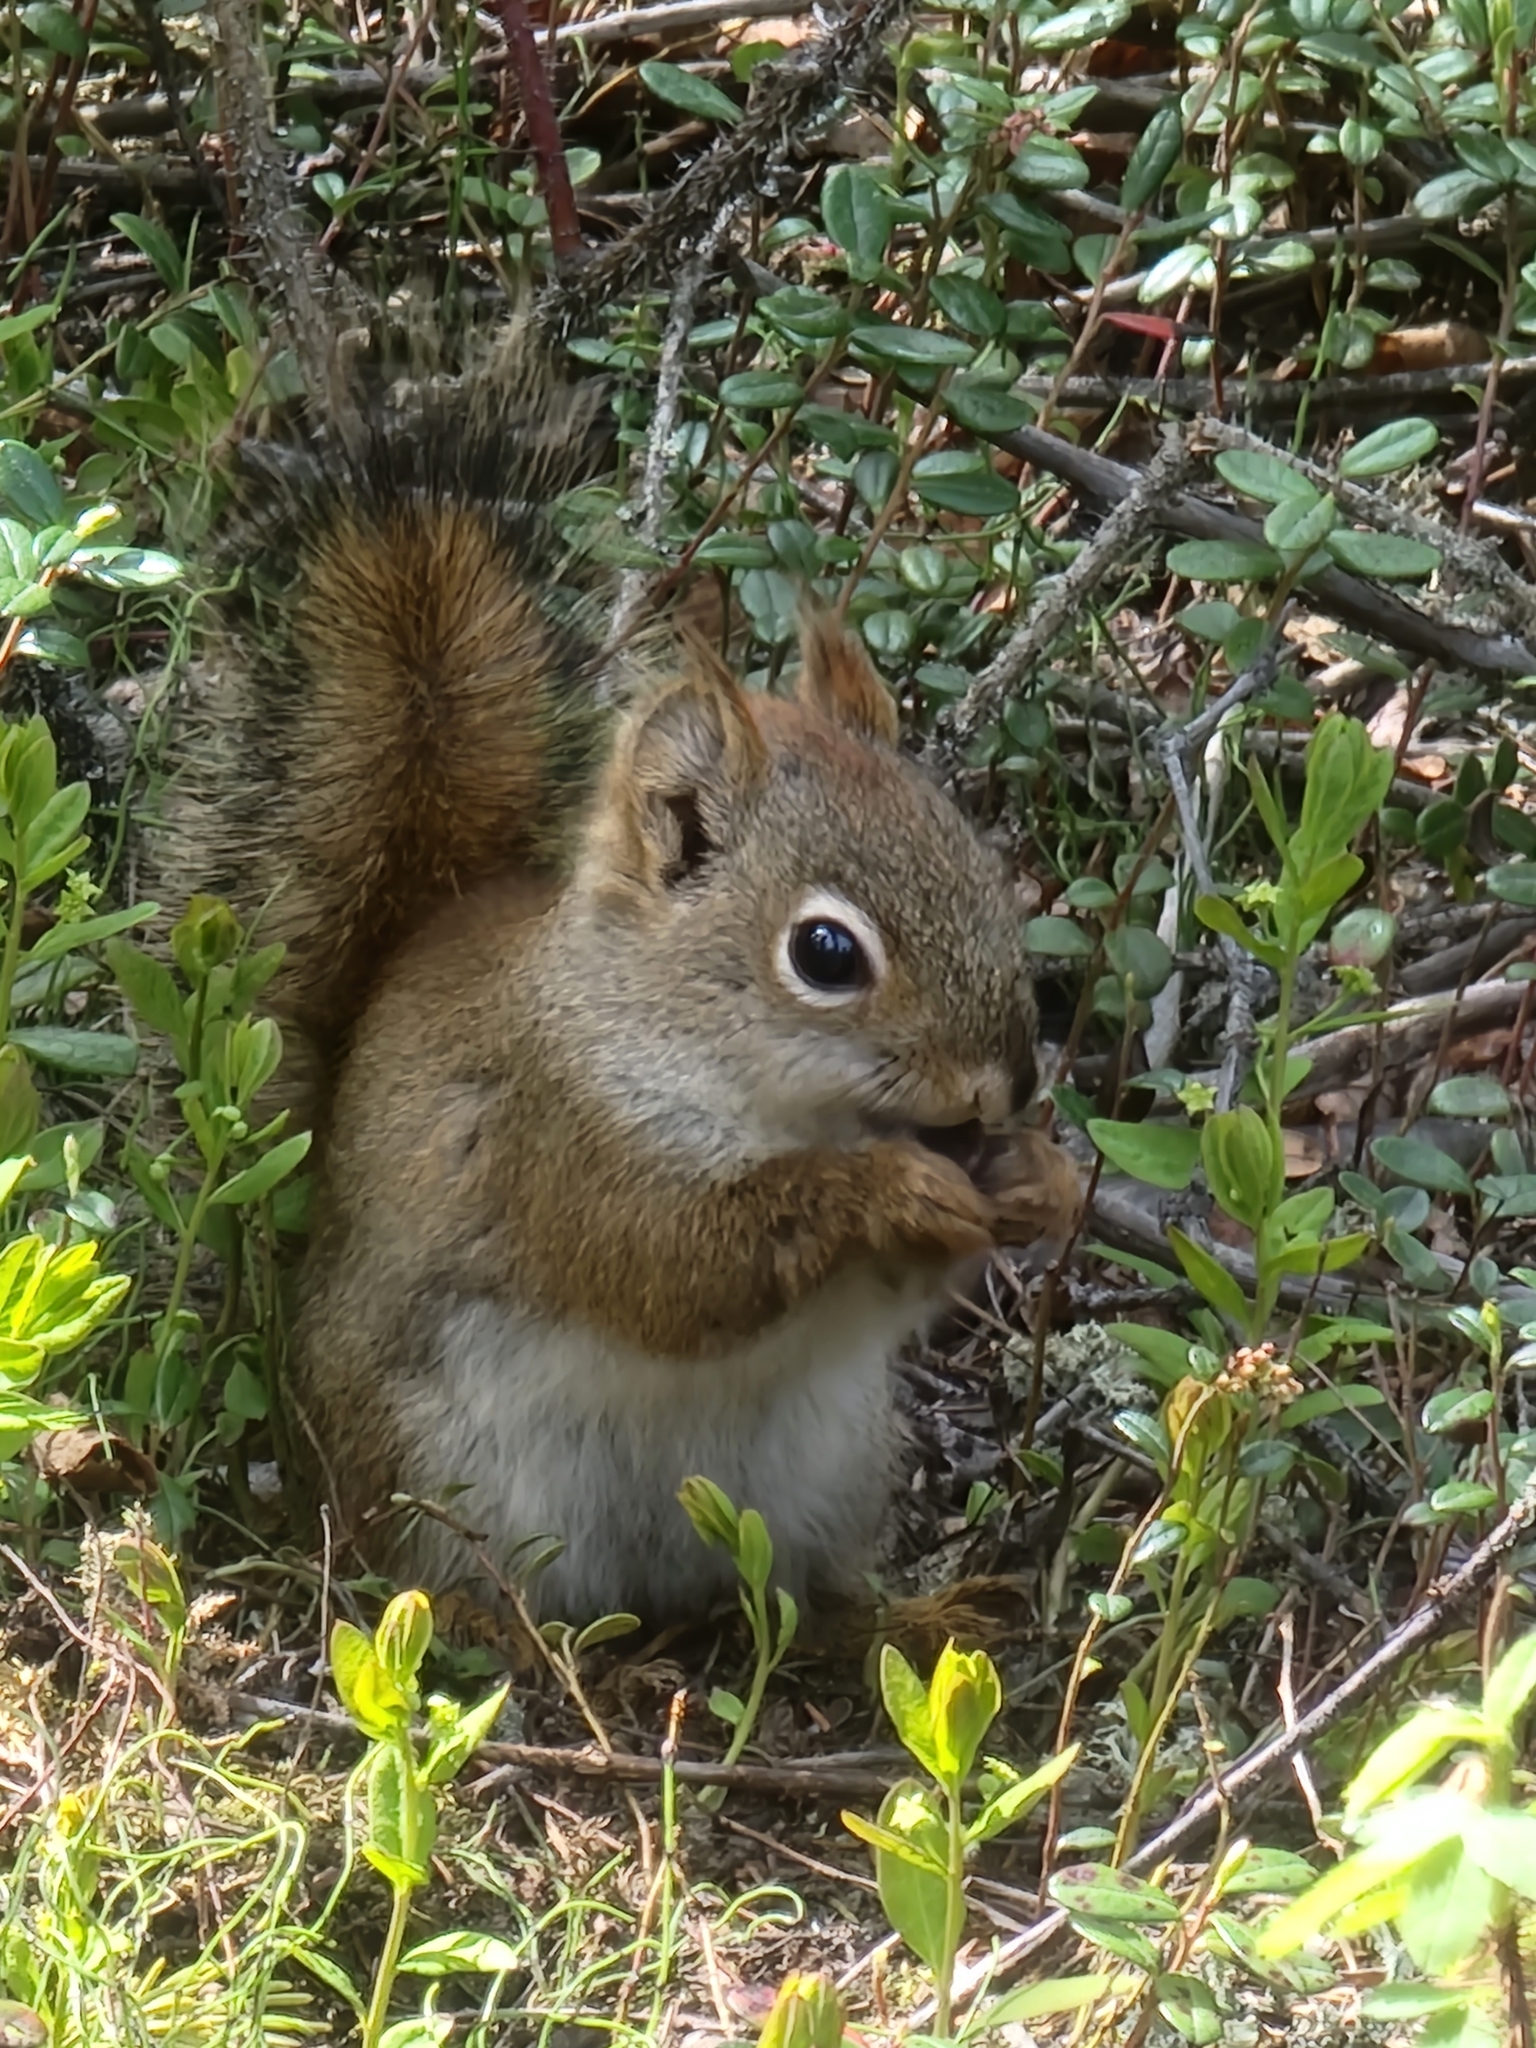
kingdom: Animalia
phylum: Chordata
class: Mammalia
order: Rodentia
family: Sciuridae
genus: Tamiasciurus
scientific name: Tamiasciurus hudsonicus
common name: Red squirrel
